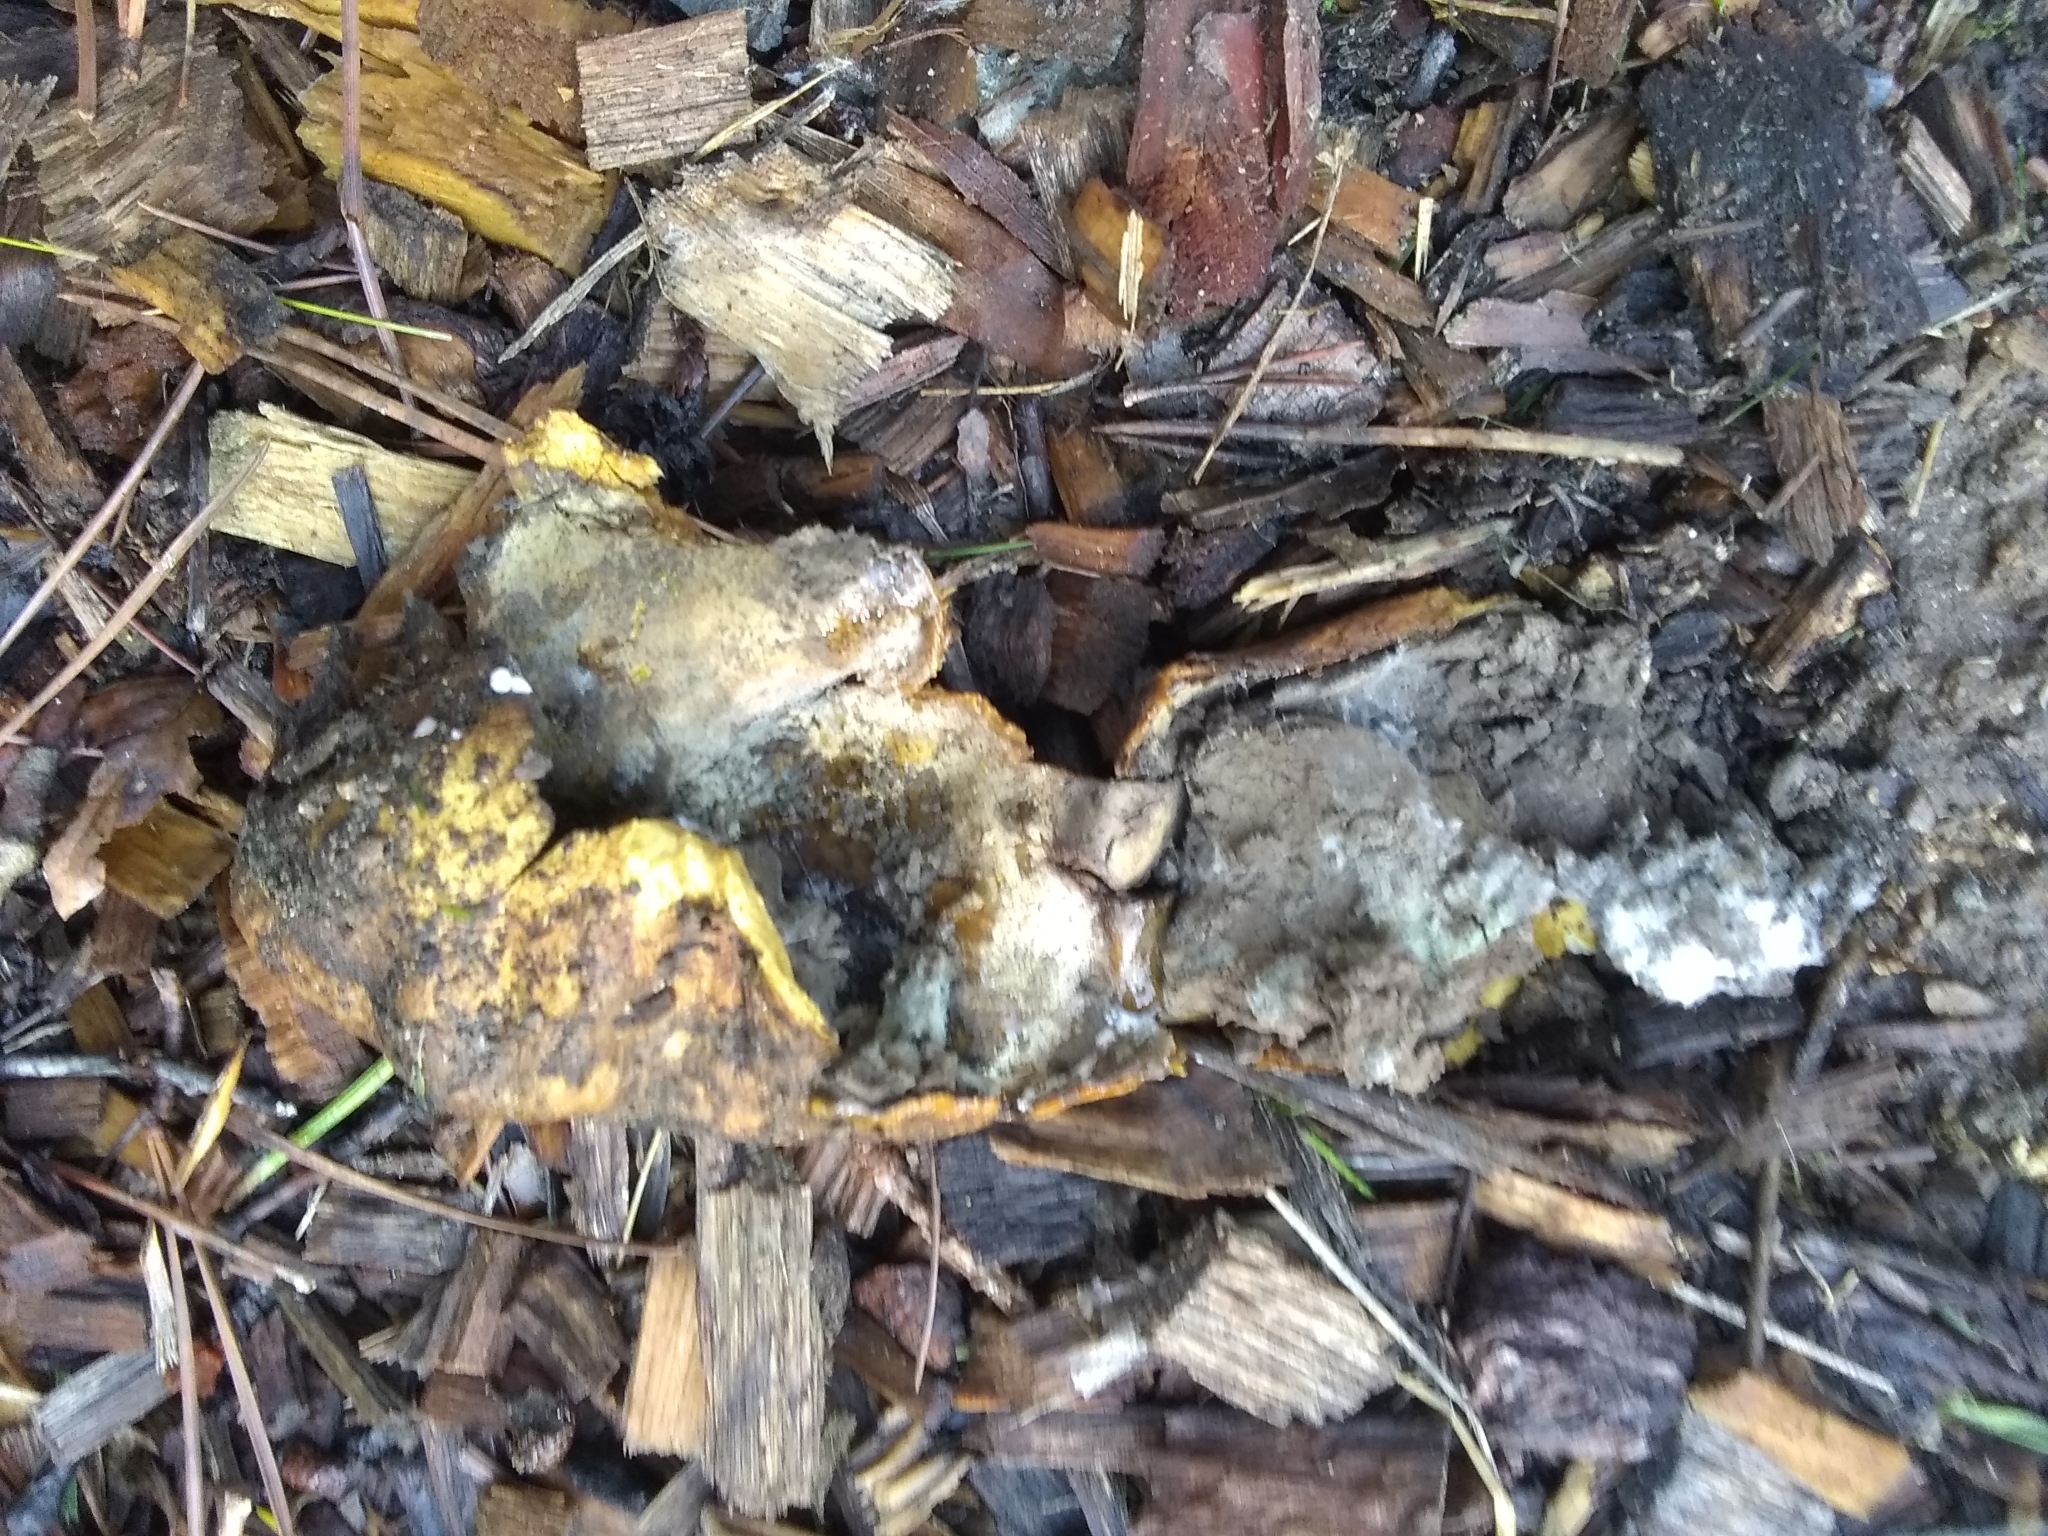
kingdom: Fungi
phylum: Basidiomycota
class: Agaricomycetes
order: Boletales
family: Sclerodermataceae
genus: Scleroderma
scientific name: Scleroderma polyrhizum
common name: Many-rooted earthball
